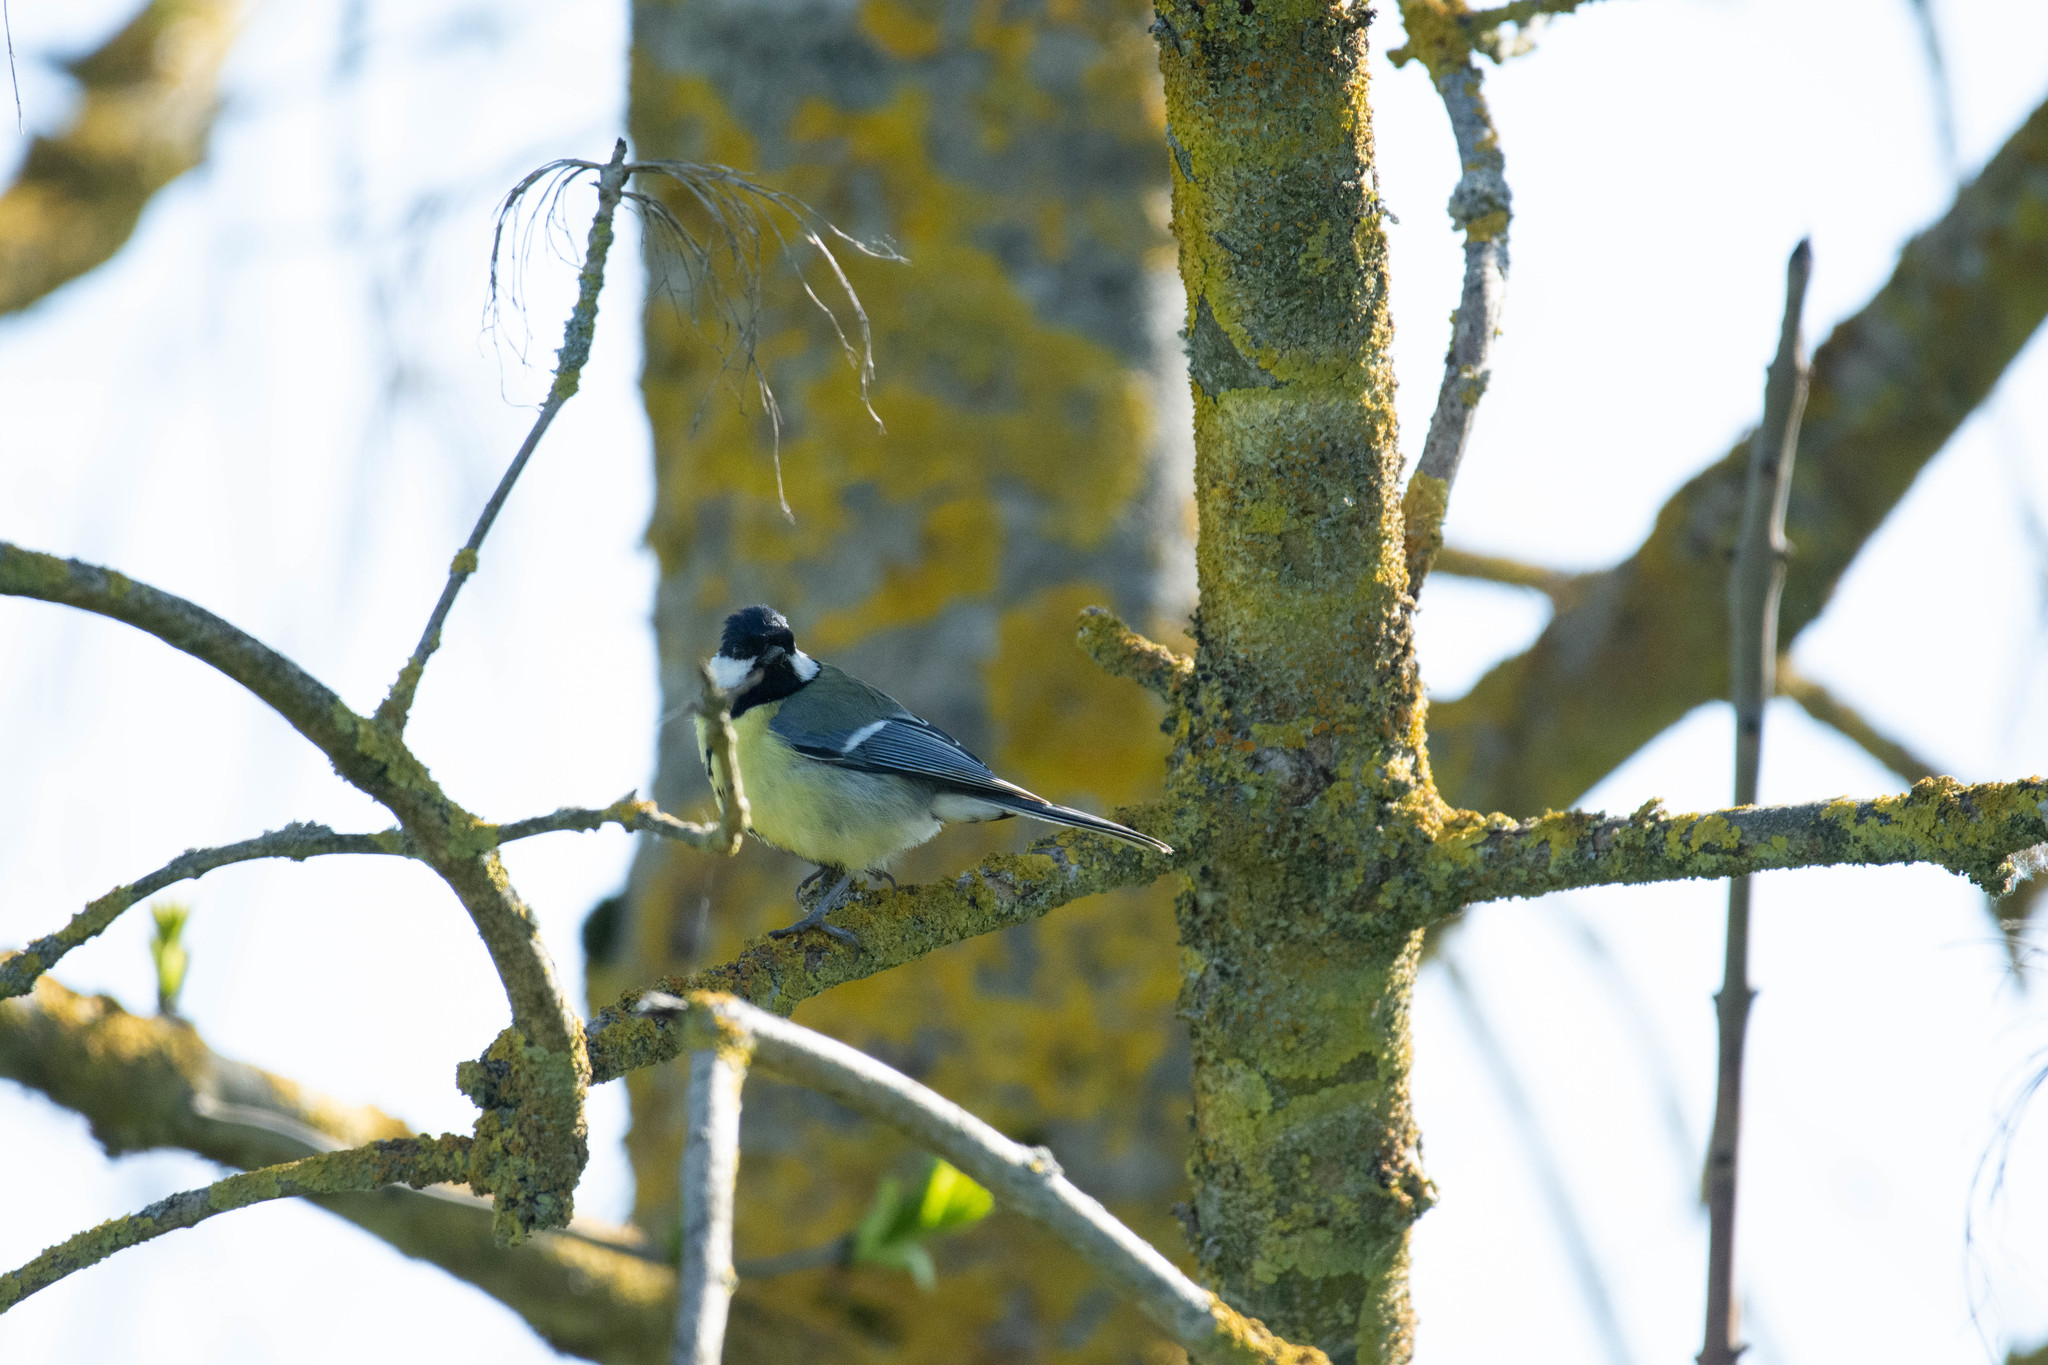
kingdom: Animalia
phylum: Chordata
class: Aves
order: Passeriformes
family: Paridae
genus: Parus
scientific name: Parus major
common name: Great tit
